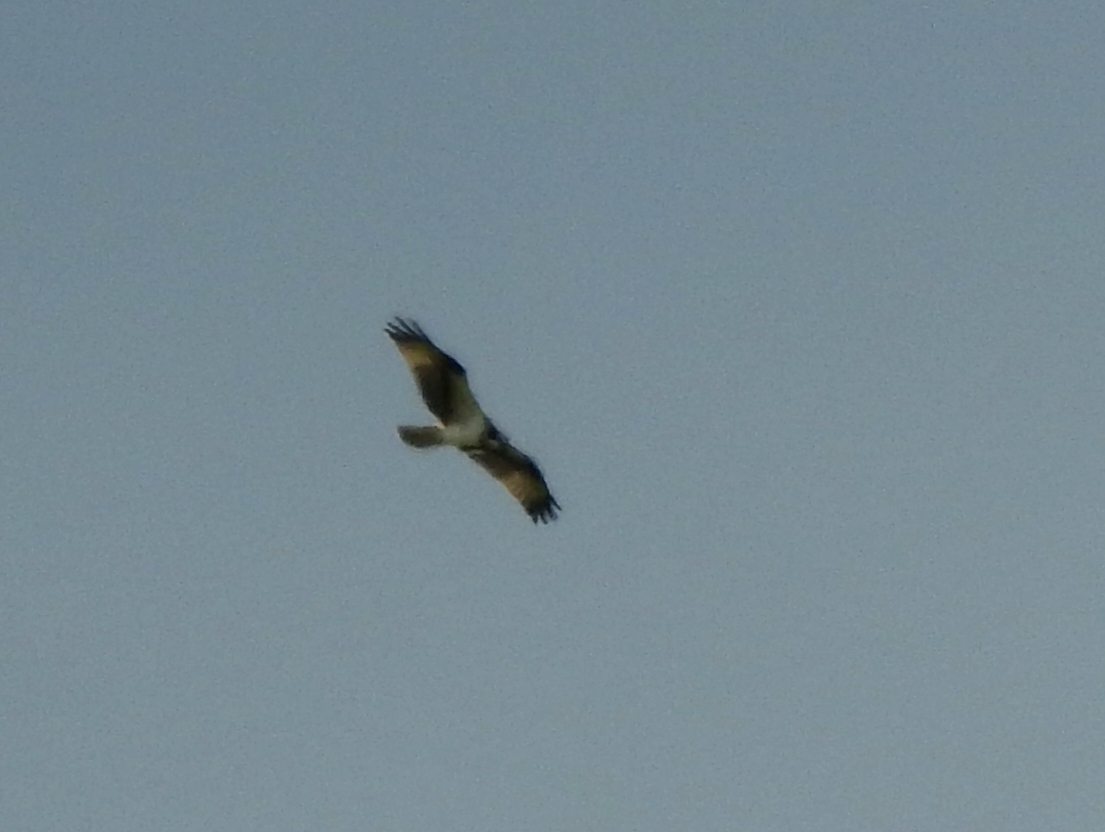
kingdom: Animalia
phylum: Chordata
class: Aves
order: Accipitriformes
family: Pandionidae
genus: Pandion
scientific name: Pandion haliaetus
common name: Osprey
